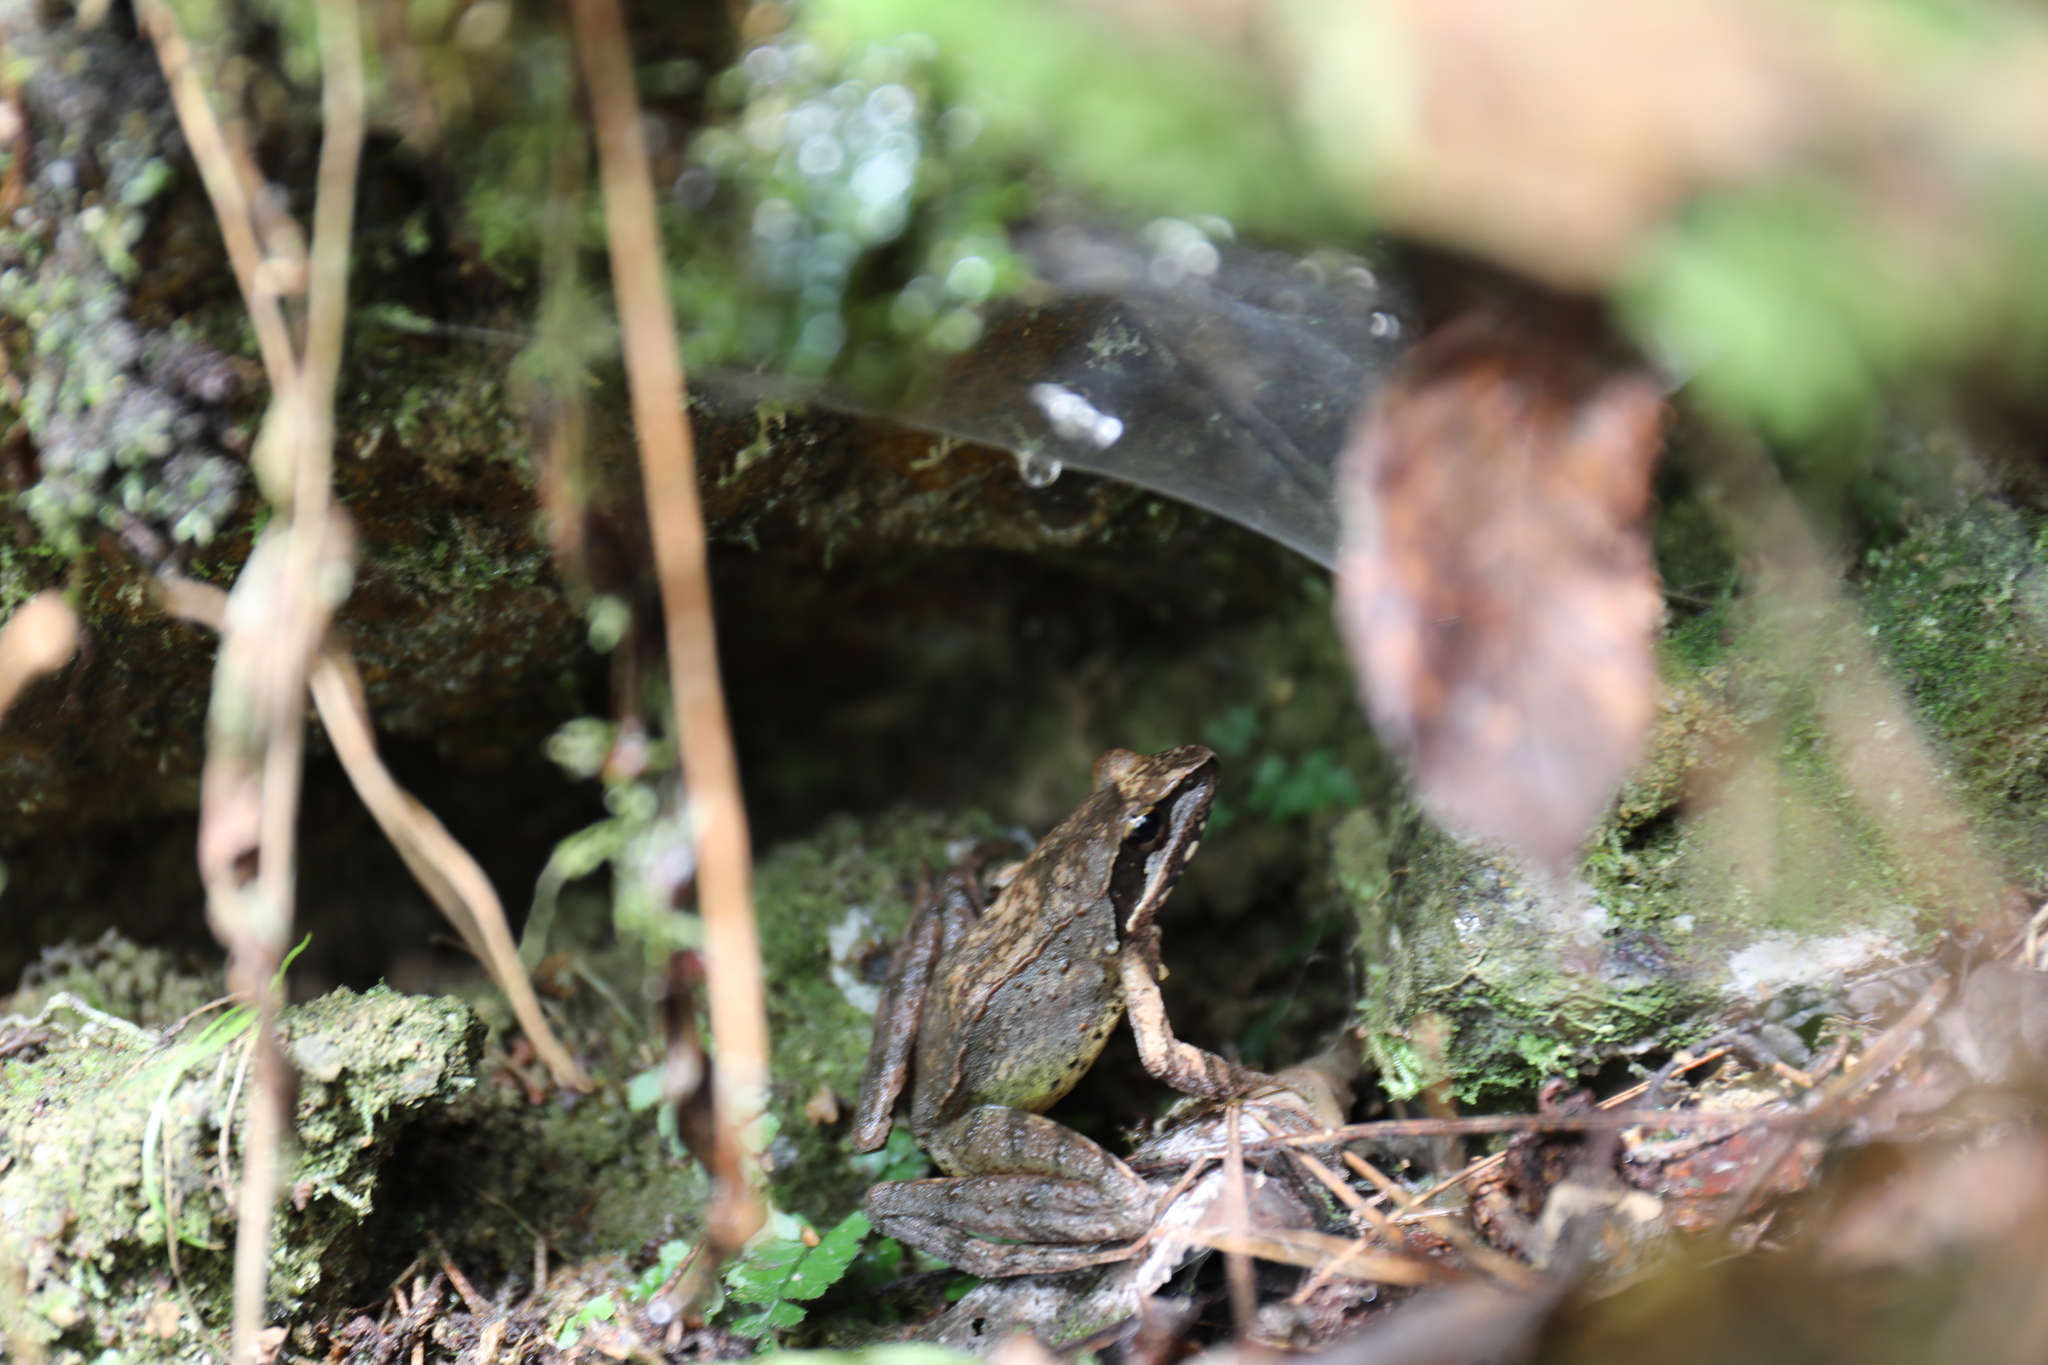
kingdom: Animalia
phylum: Chordata
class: Amphibia
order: Anura
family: Ranidae
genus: Rana
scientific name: Rana sauteri
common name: Kanshirei village frog
